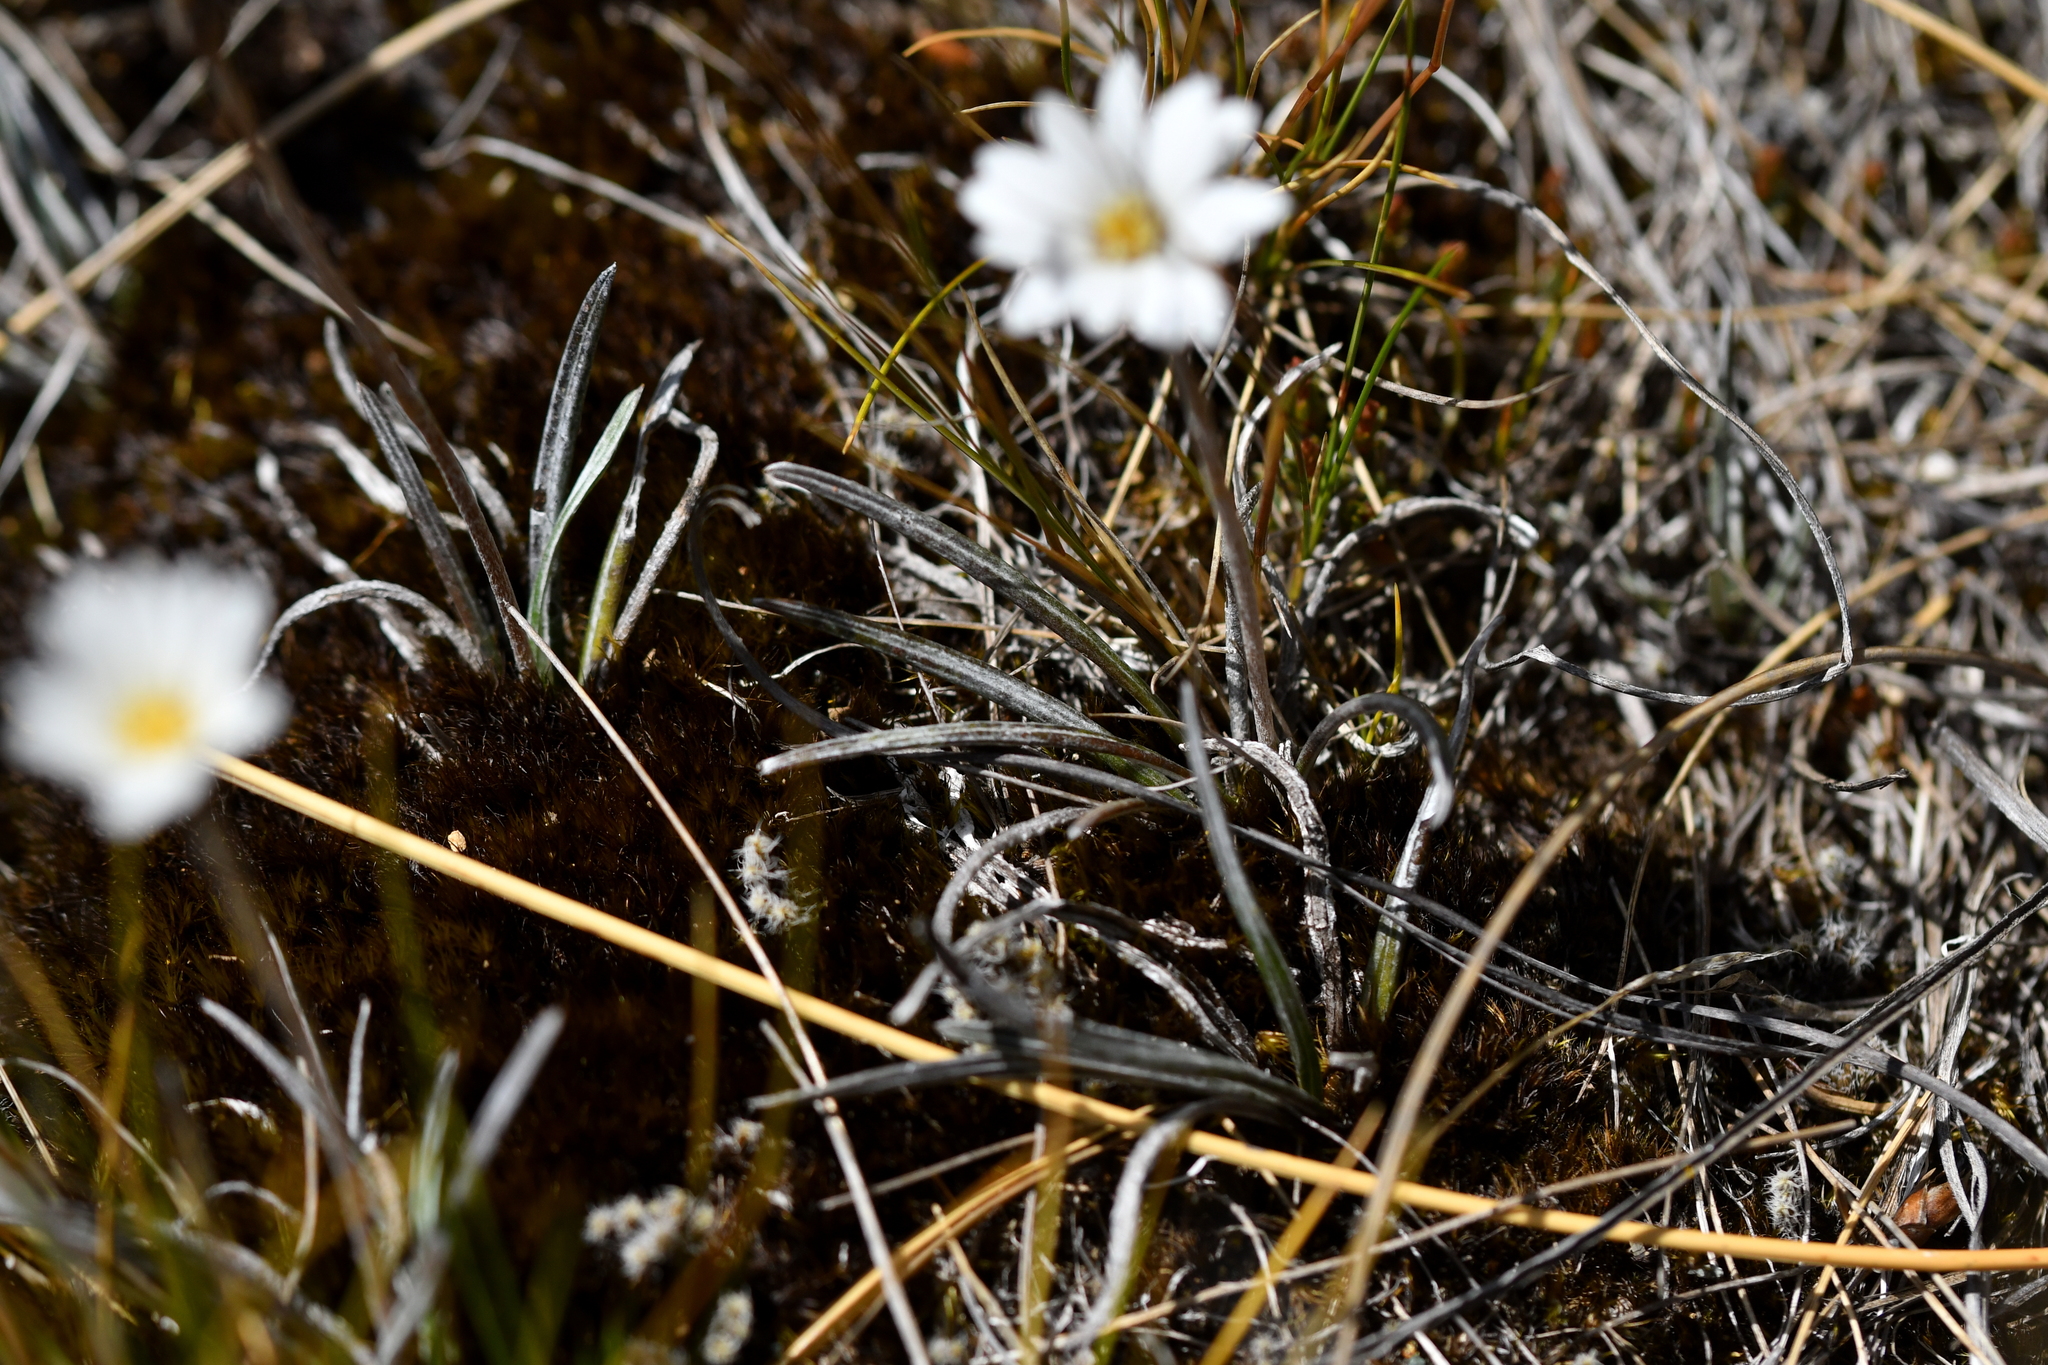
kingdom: Plantae
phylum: Tracheophyta
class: Magnoliopsida
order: Asterales
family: Asteraceae
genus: Celmisia
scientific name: Celmisia gracilenta
